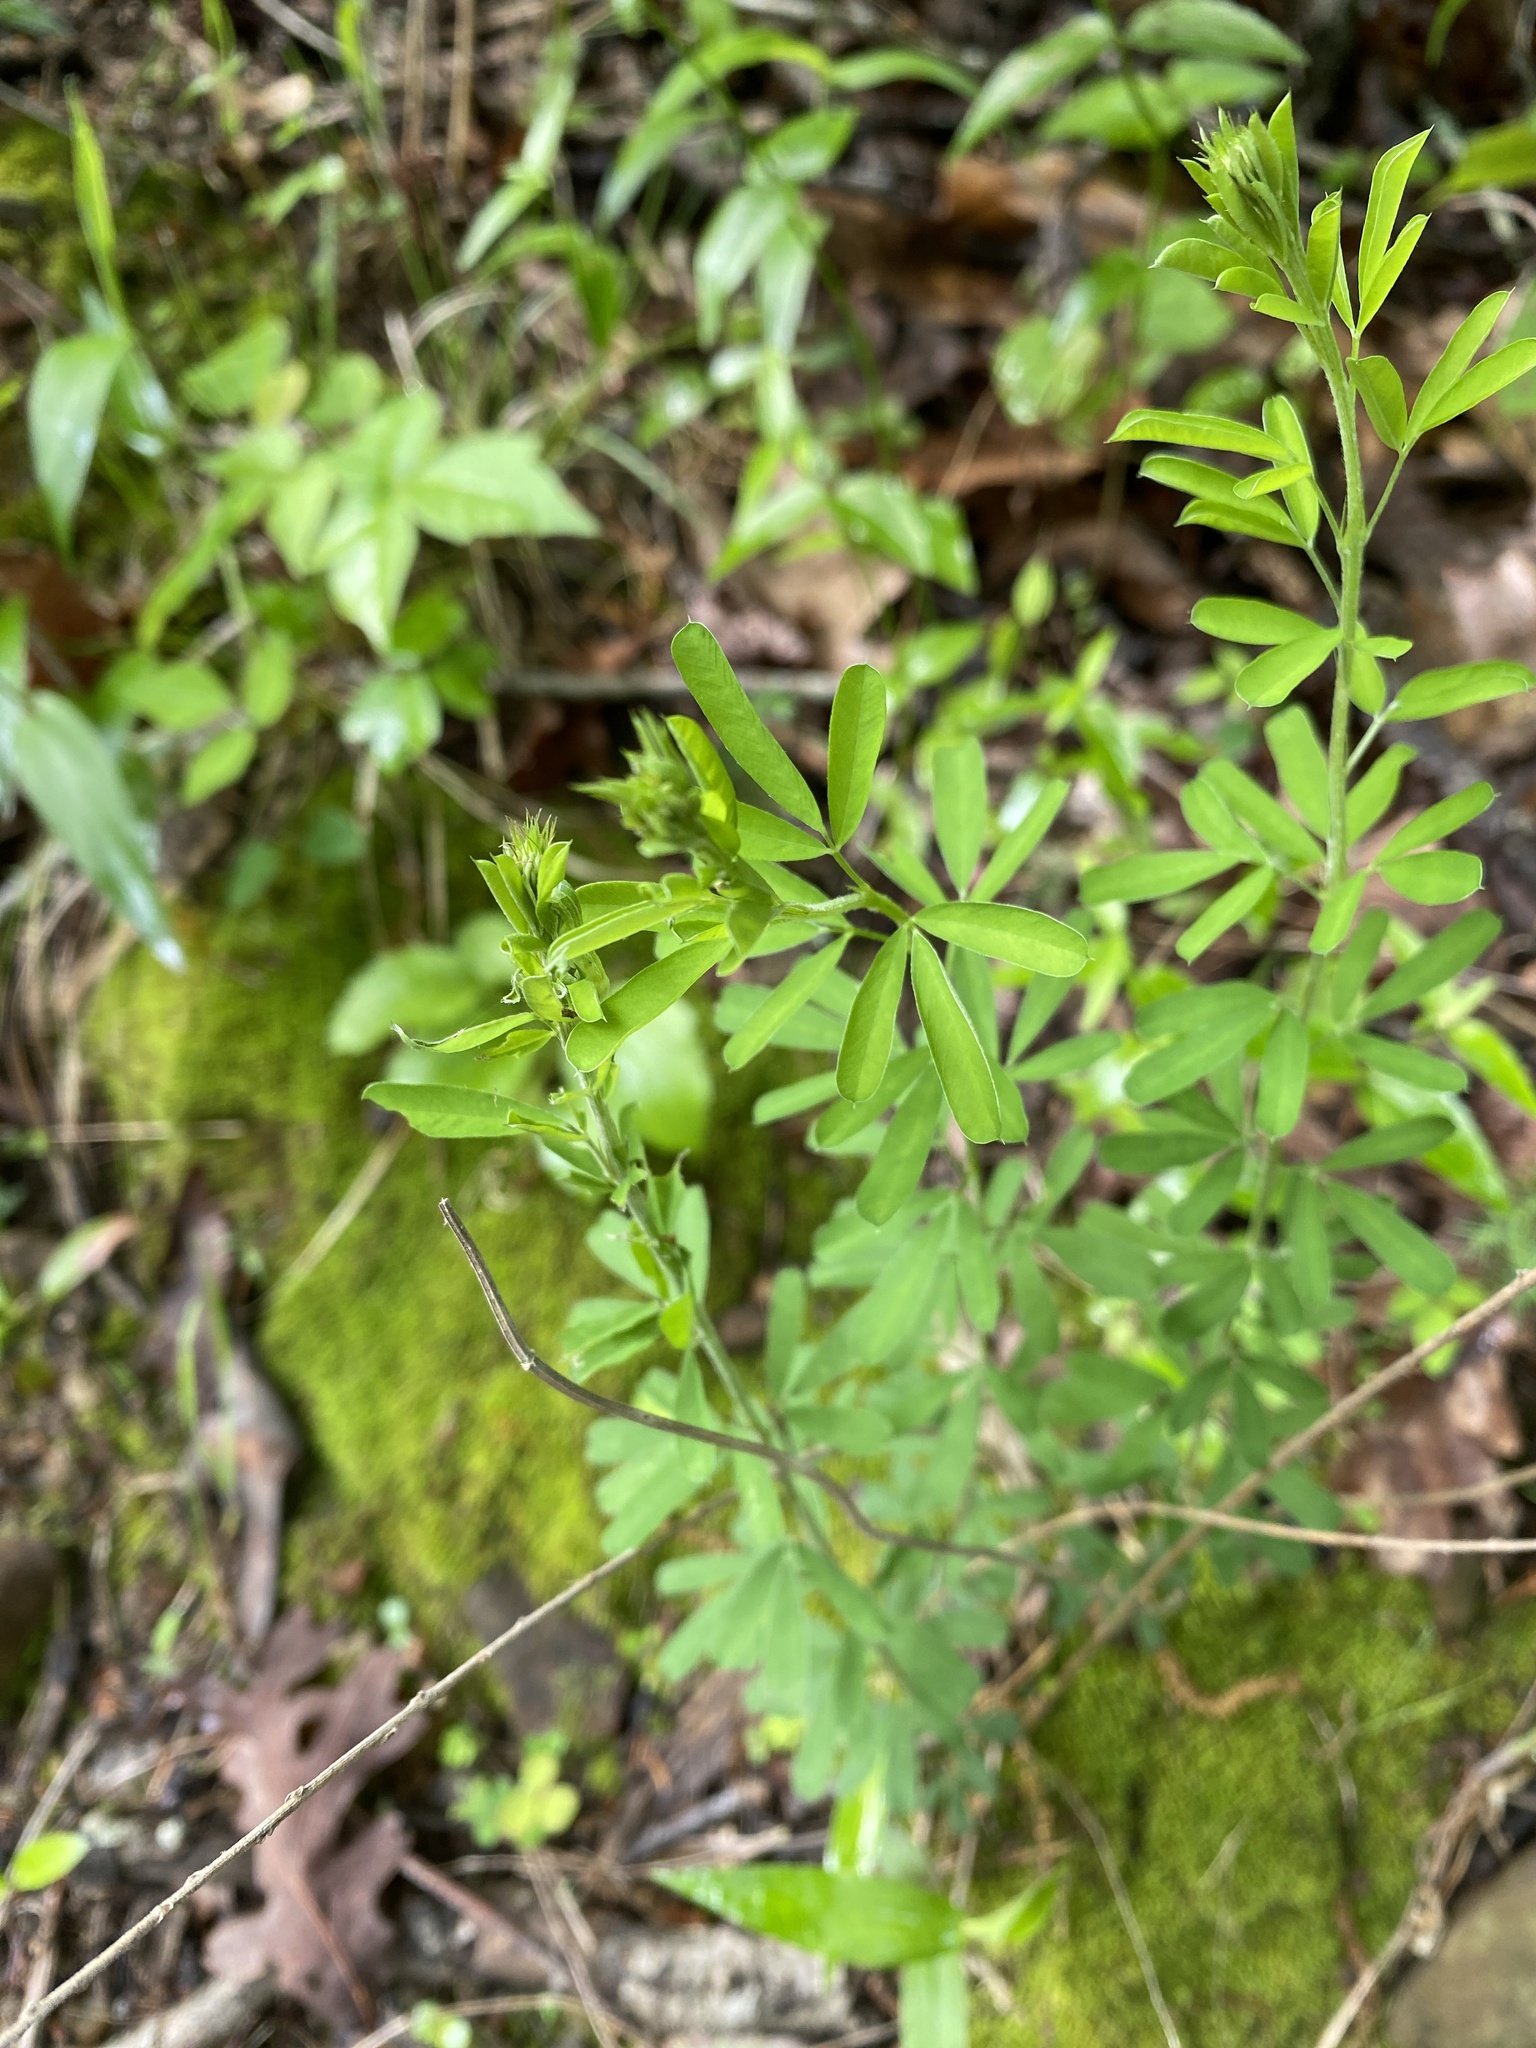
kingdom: Plantae
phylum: Tracheophyta
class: Magnoliopsida
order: Fabales
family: Fabaceae
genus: Lespedeza
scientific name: Lespedeza cuneata
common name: Chinese bush-clover
